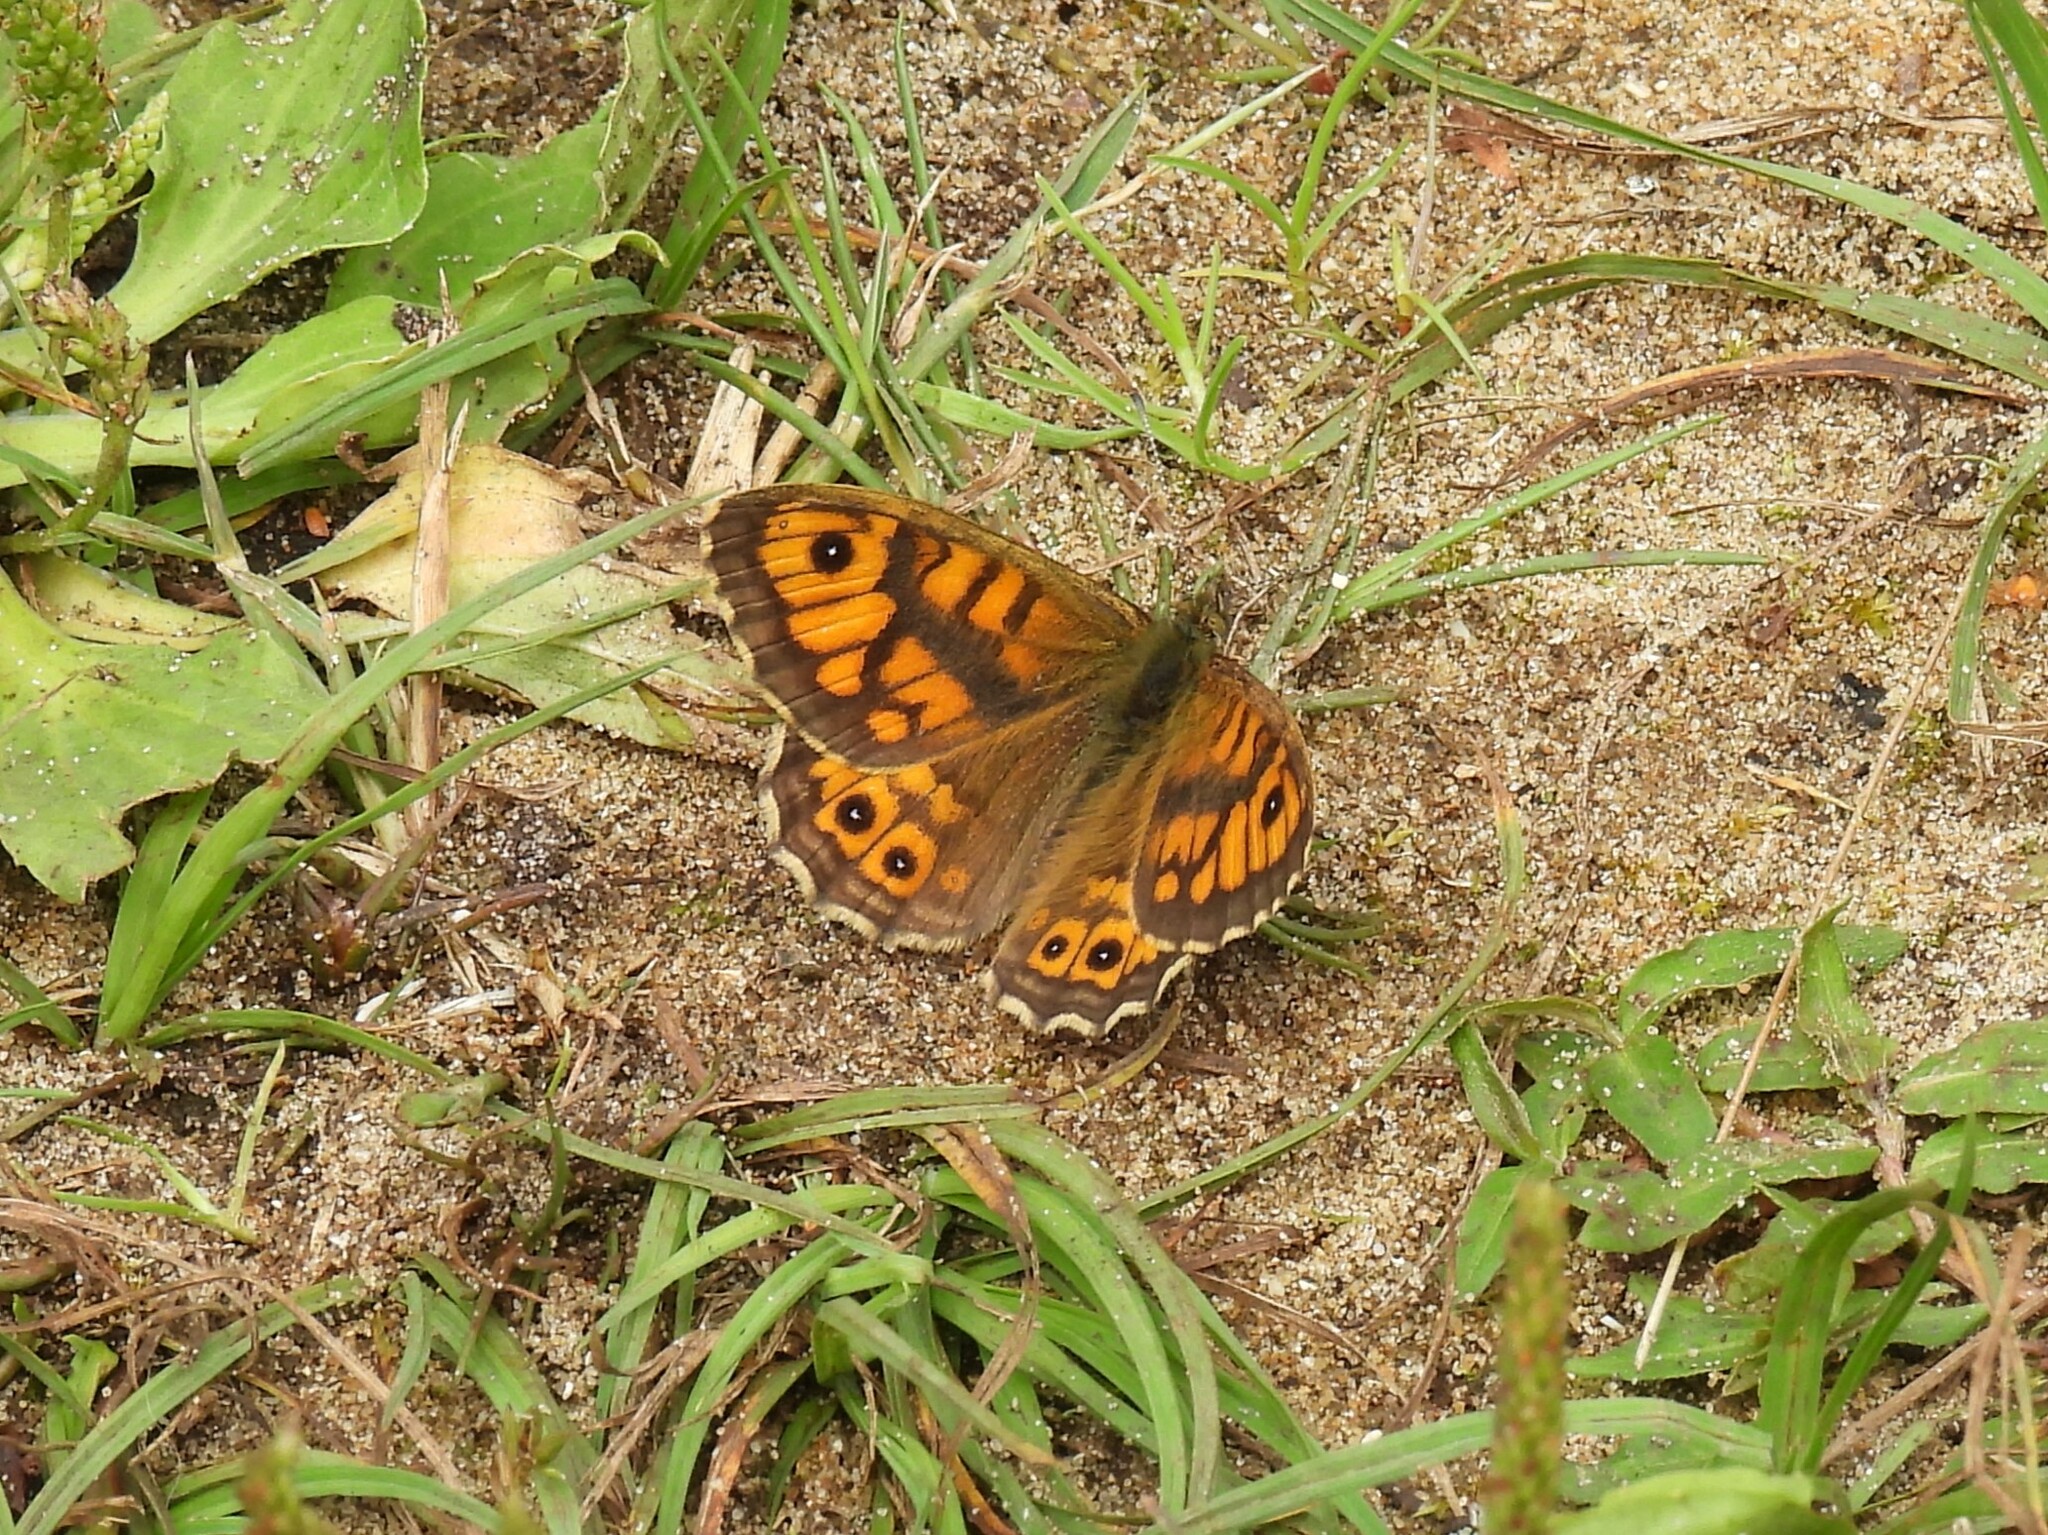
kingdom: Animalia
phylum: Arthropoda
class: Insecta
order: Lepidoptera
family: Nymphalidae
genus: Pararge
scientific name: Pararge Lasiommata megera
